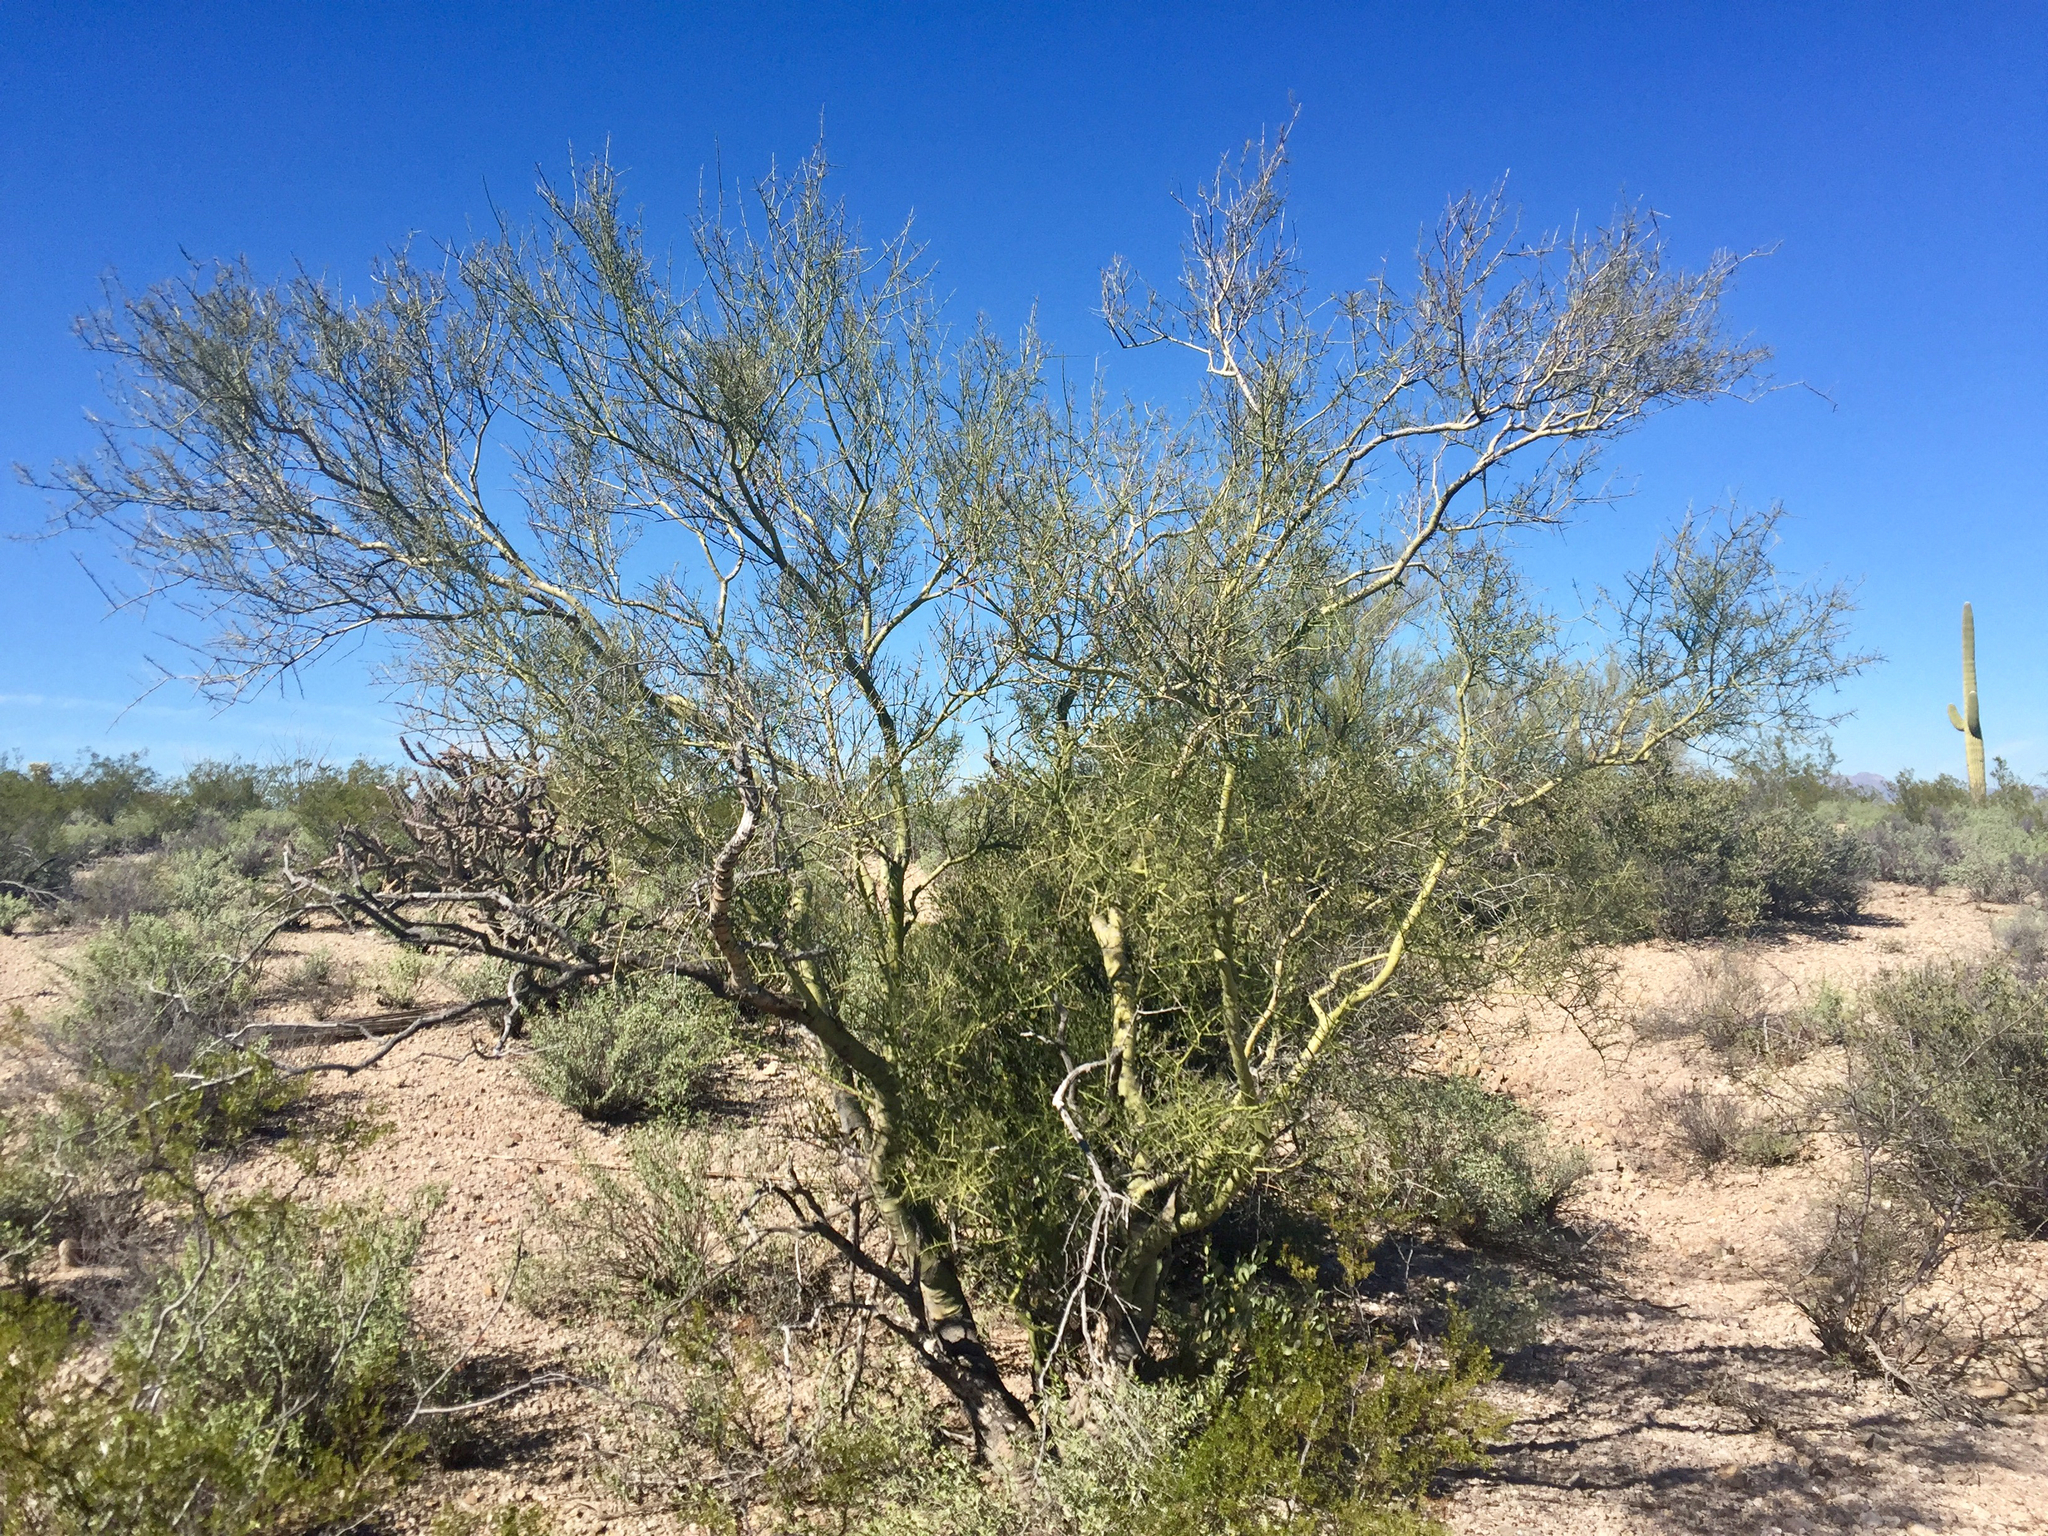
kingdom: Plantae
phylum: Tracheophyta
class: Magnoliopsida
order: Fabales
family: Fabaceae
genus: Parkinsonia
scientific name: Parkinsonia microphylla
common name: Yellow paloverde
